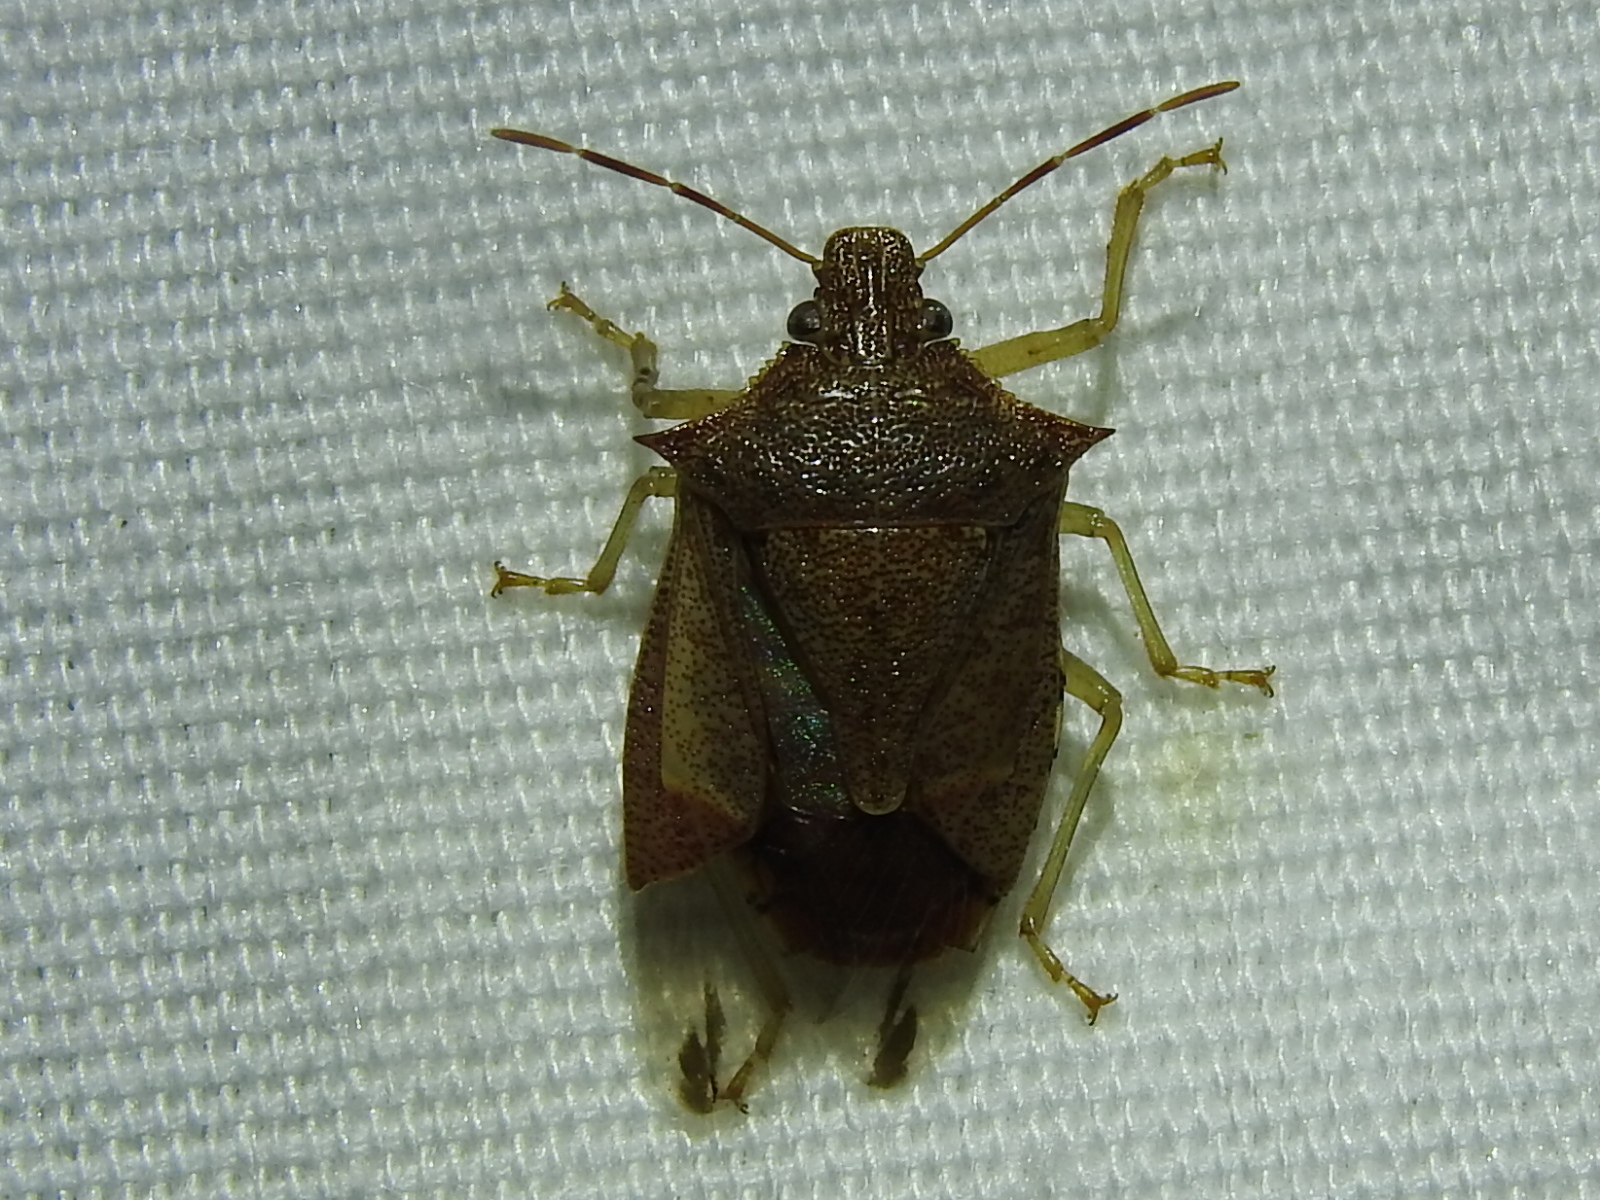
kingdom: Animalia
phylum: Arthropoda
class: Insecta
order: Hemiptera
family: Pentatomidae
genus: Podisus
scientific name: Podisus maculiventris
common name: Spined soldier bug
